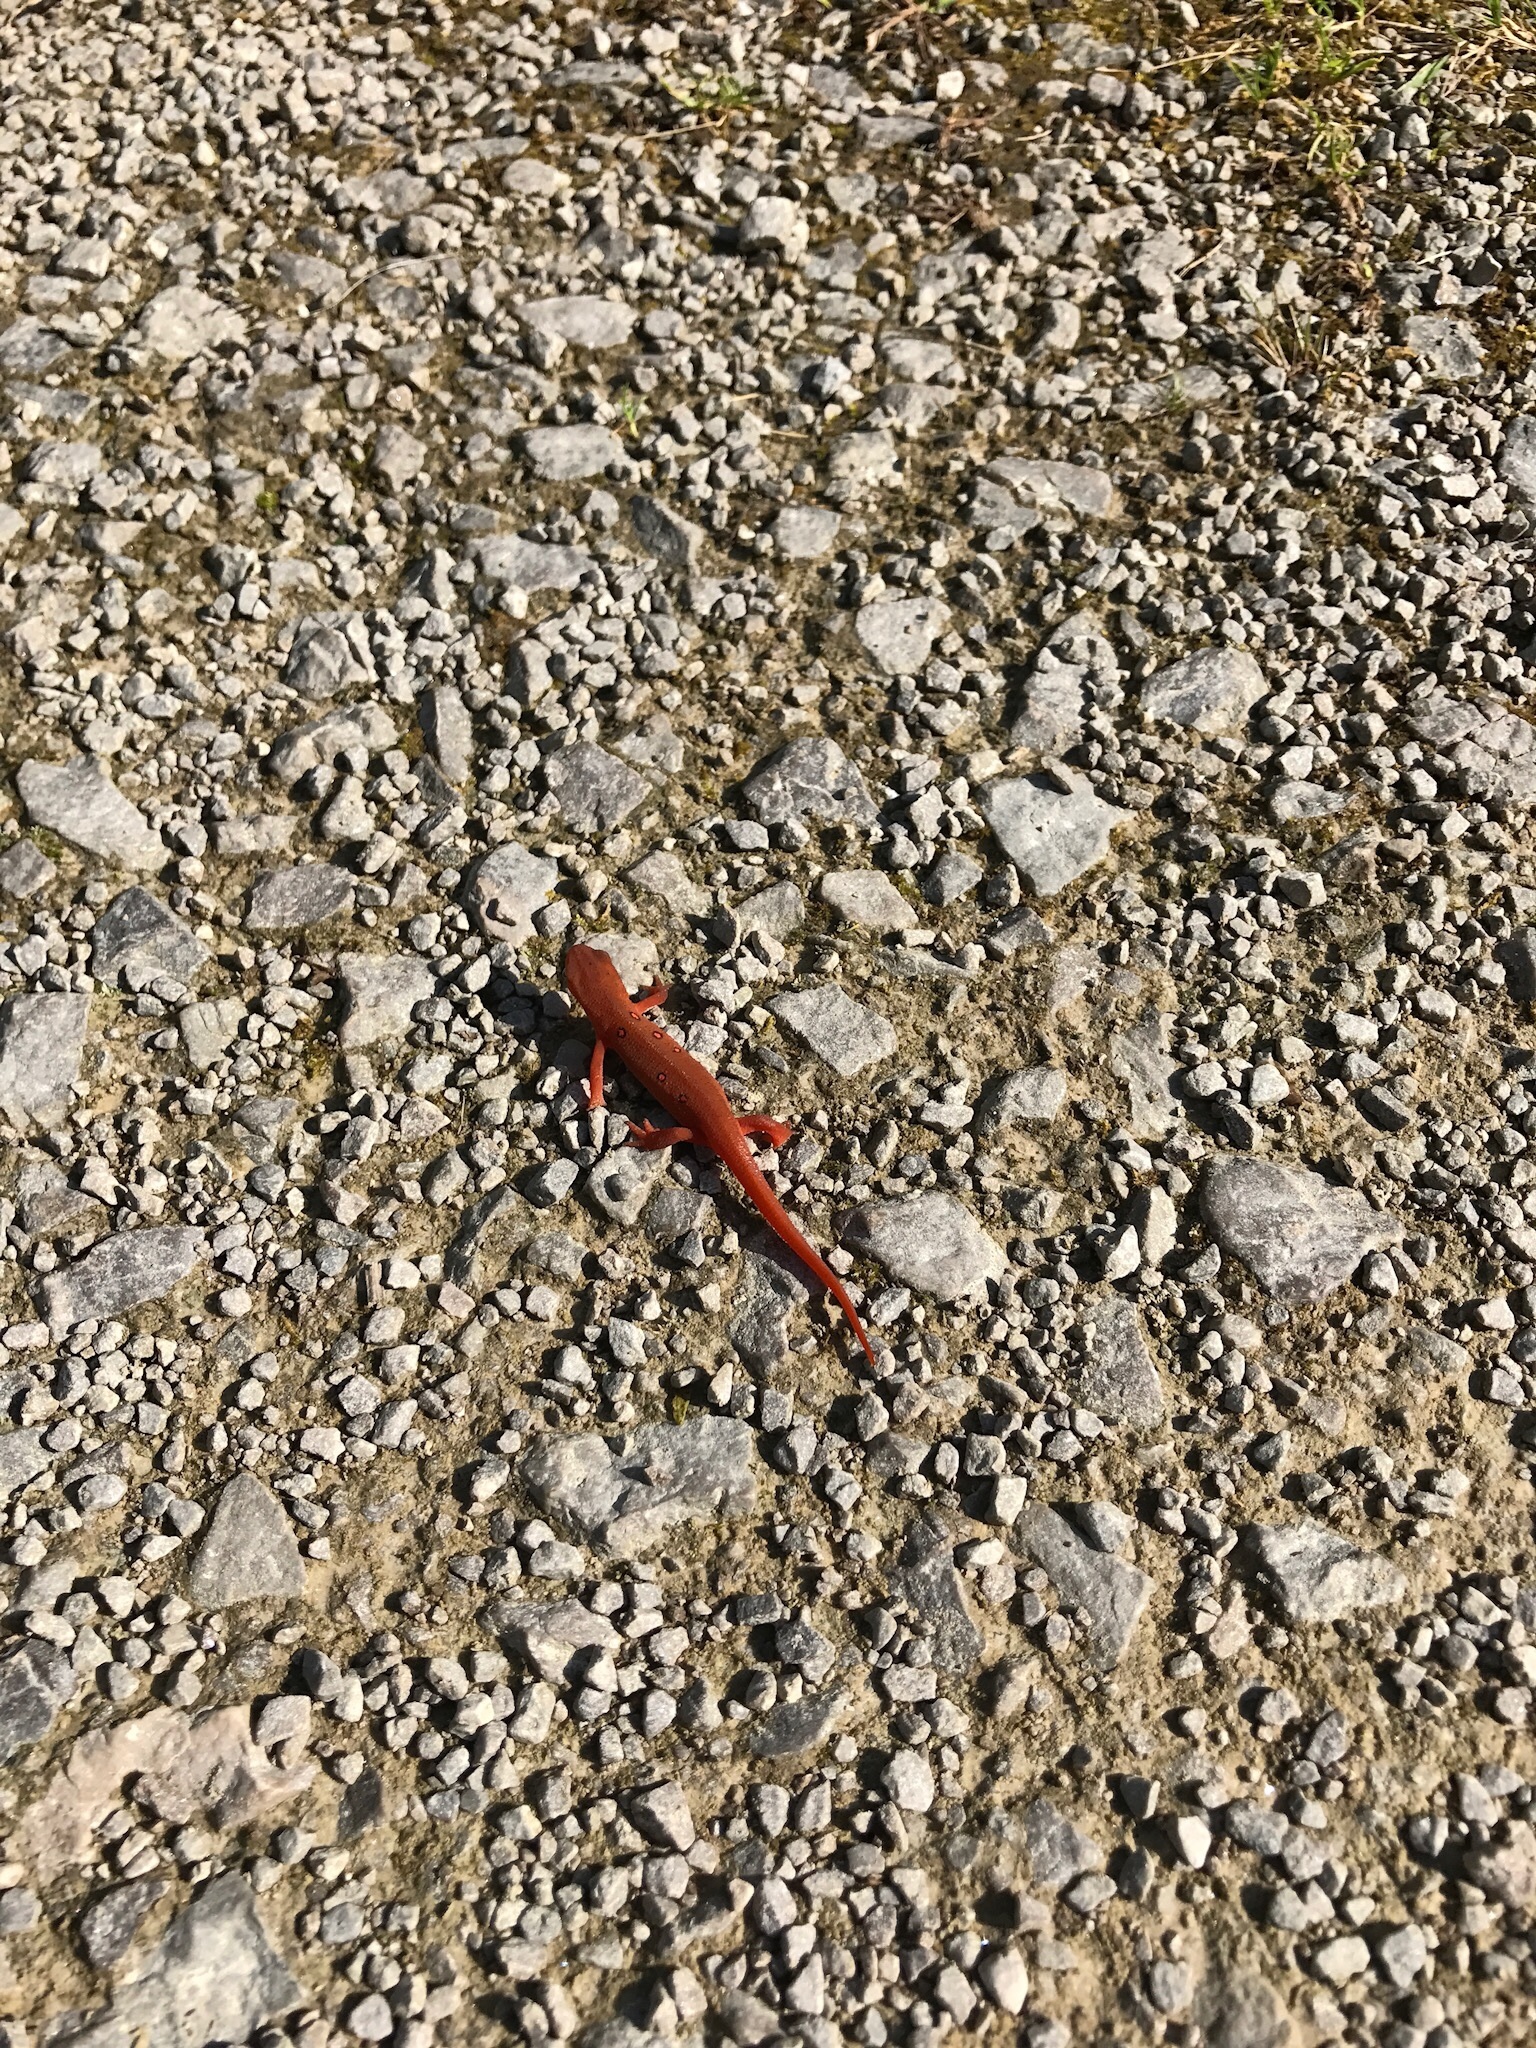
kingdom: Animalia
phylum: Chordata
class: Amphibia
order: Caudata
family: Salamandridae
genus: Notophthalmus
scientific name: Notophthalmus viridescens
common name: Eastern newt
